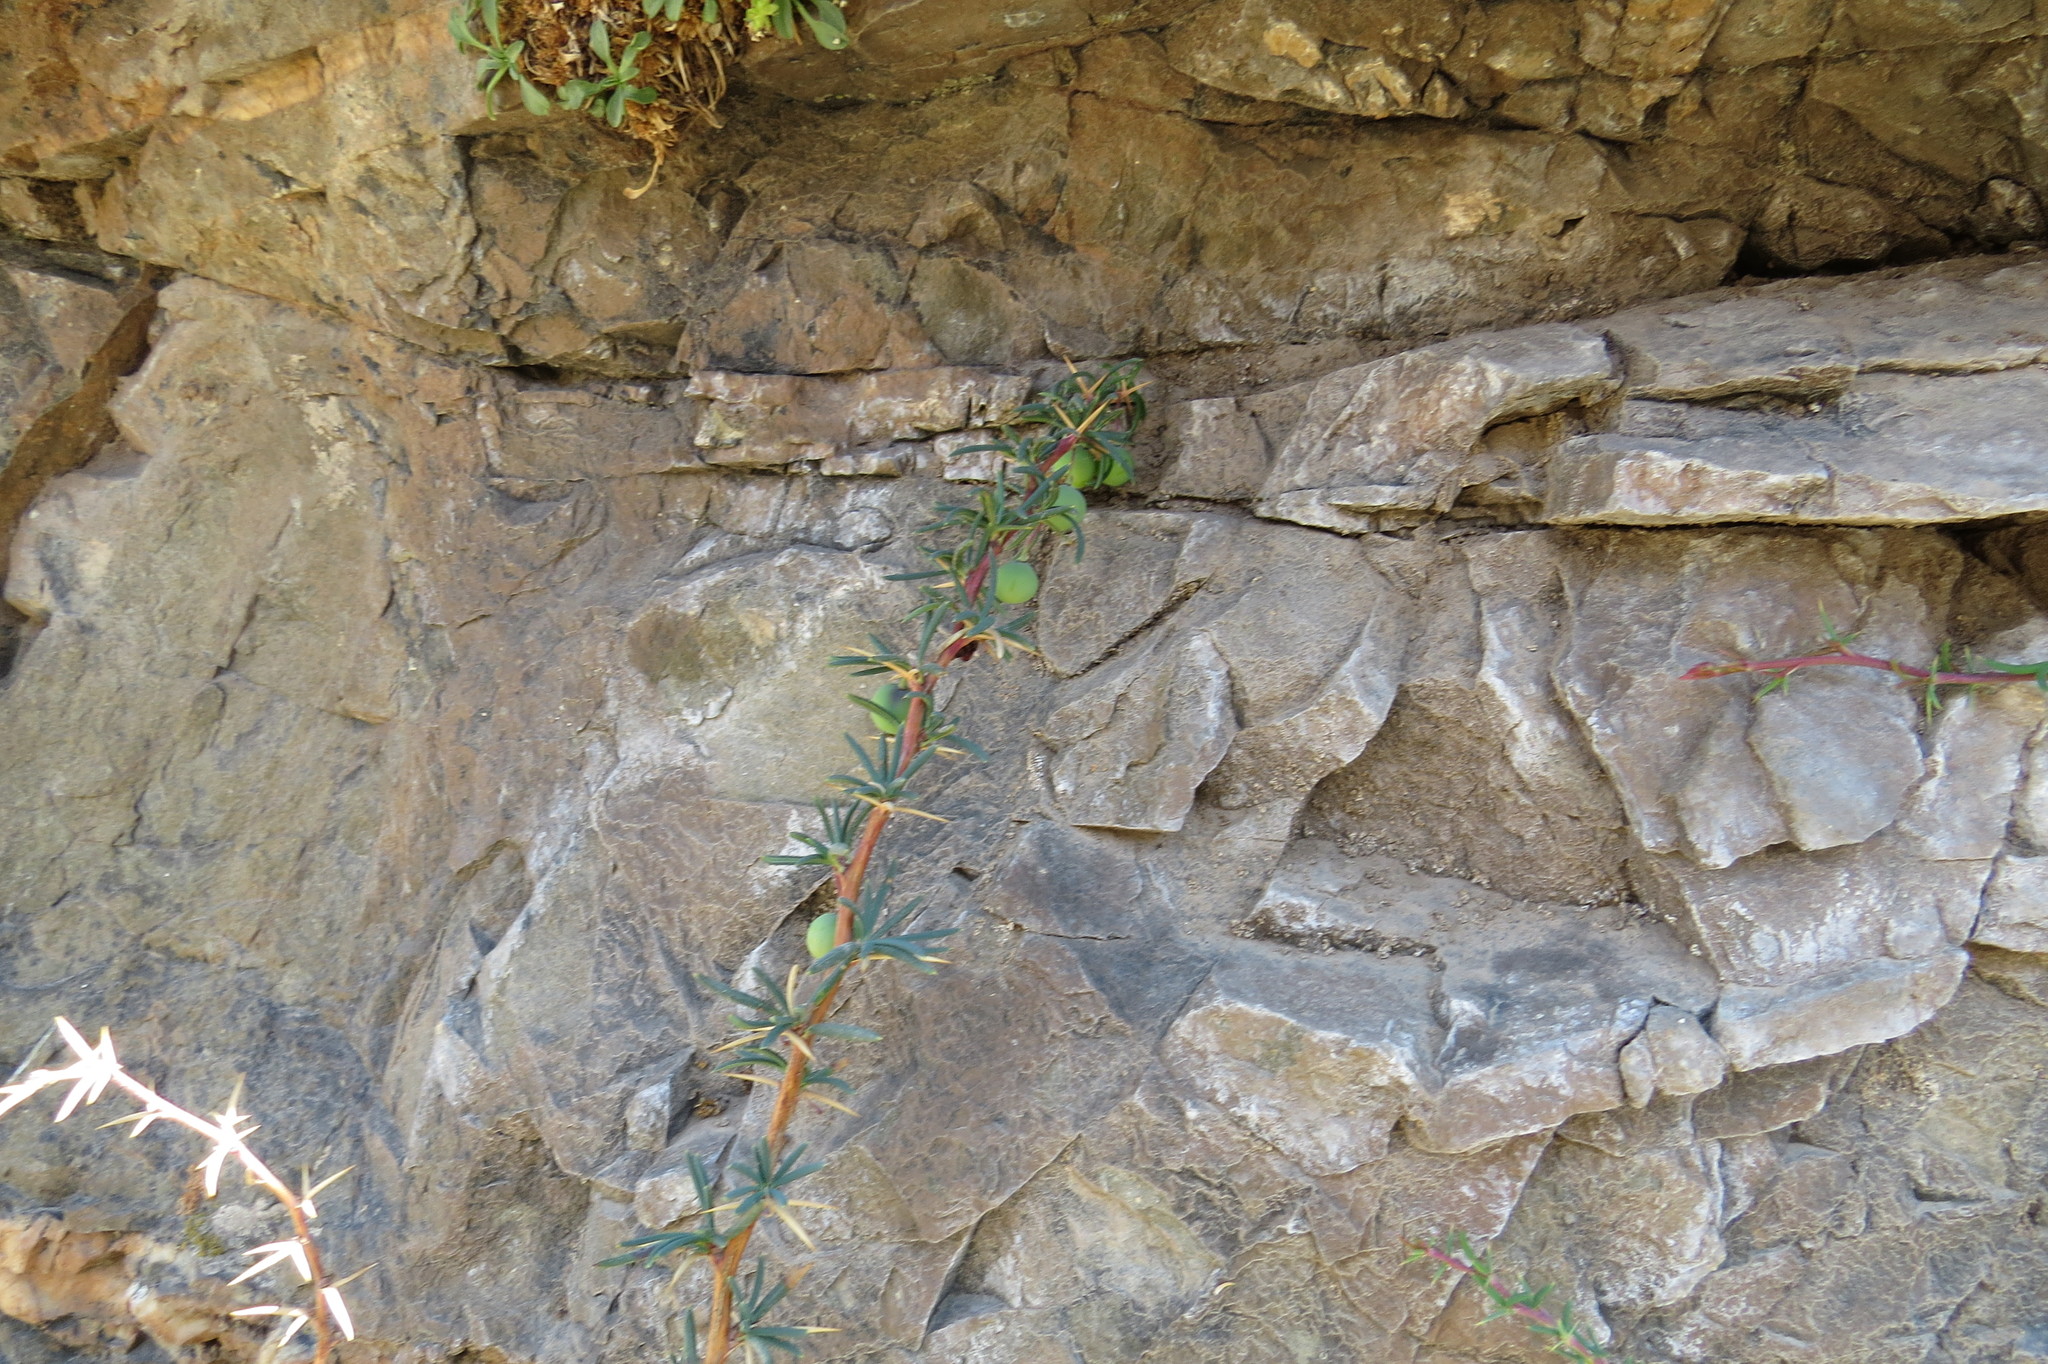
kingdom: Plantae
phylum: Tracheophyta
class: Magnoliopsida
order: Ranunculales
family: Berberidaceae
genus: Berberis
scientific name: Berberis empetrifolia
